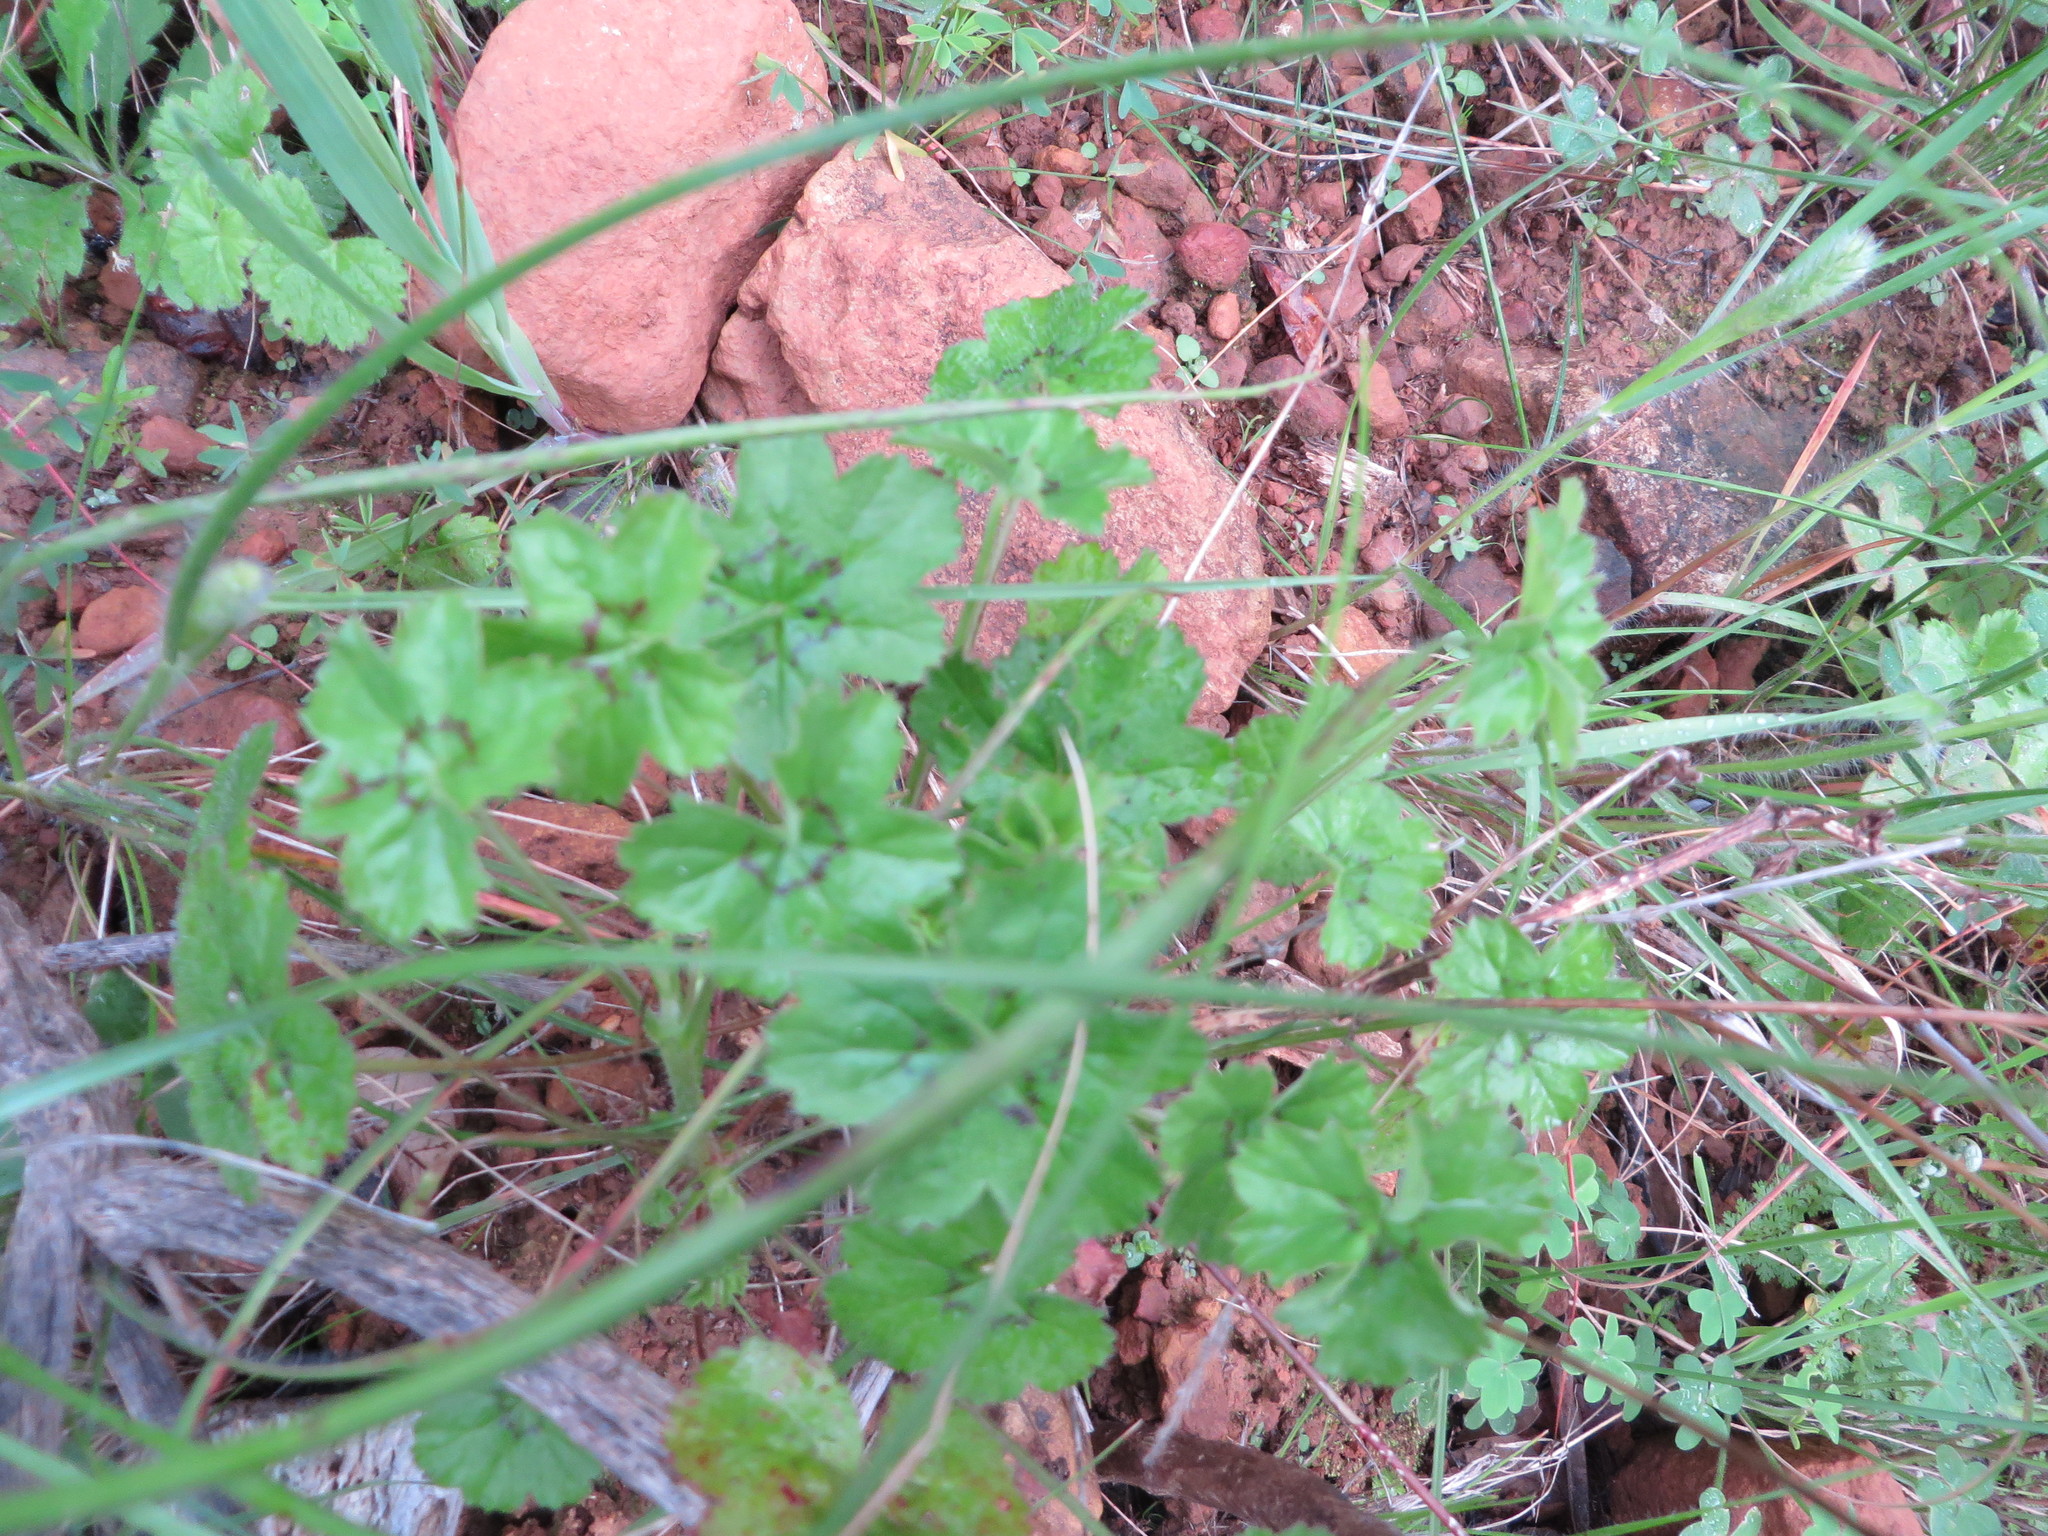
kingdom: Plantae
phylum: Tracheophyta
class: Magnoliopsida
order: Geraniales
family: Geraniaceae
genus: Pelargonium
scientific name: Pelargonium elongatum
